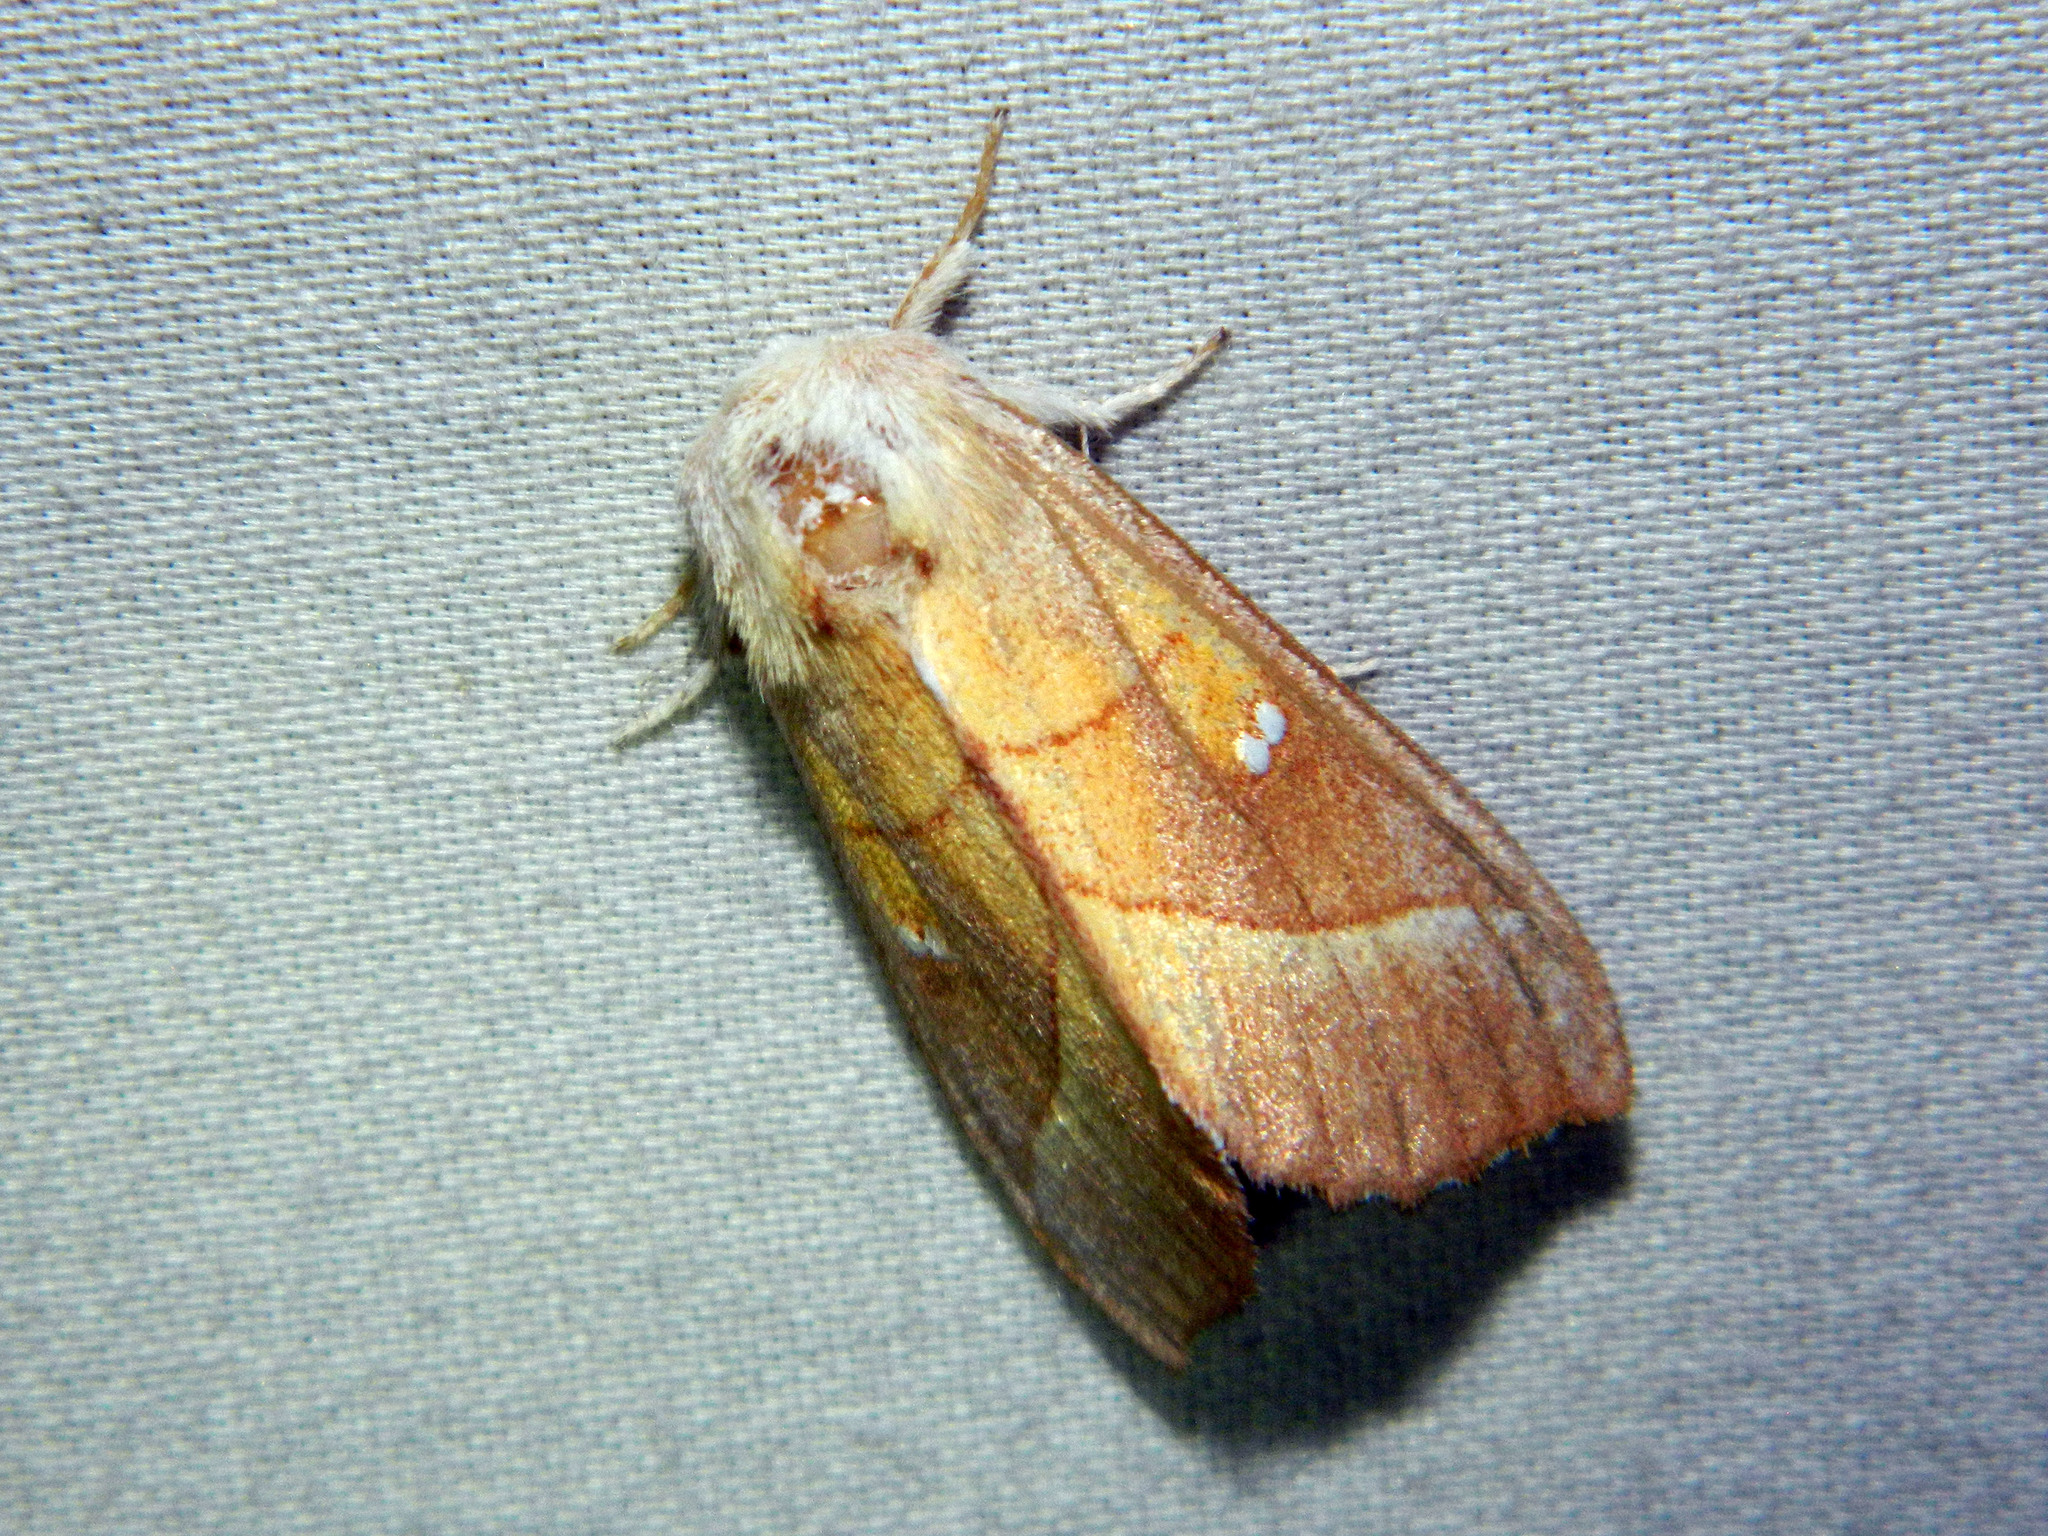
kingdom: Animalia
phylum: Arthropoda
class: Insecta
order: Lepidoptera
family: Notodontidae
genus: Nadata
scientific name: Nadata gibbosa
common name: White-dotted prominent
